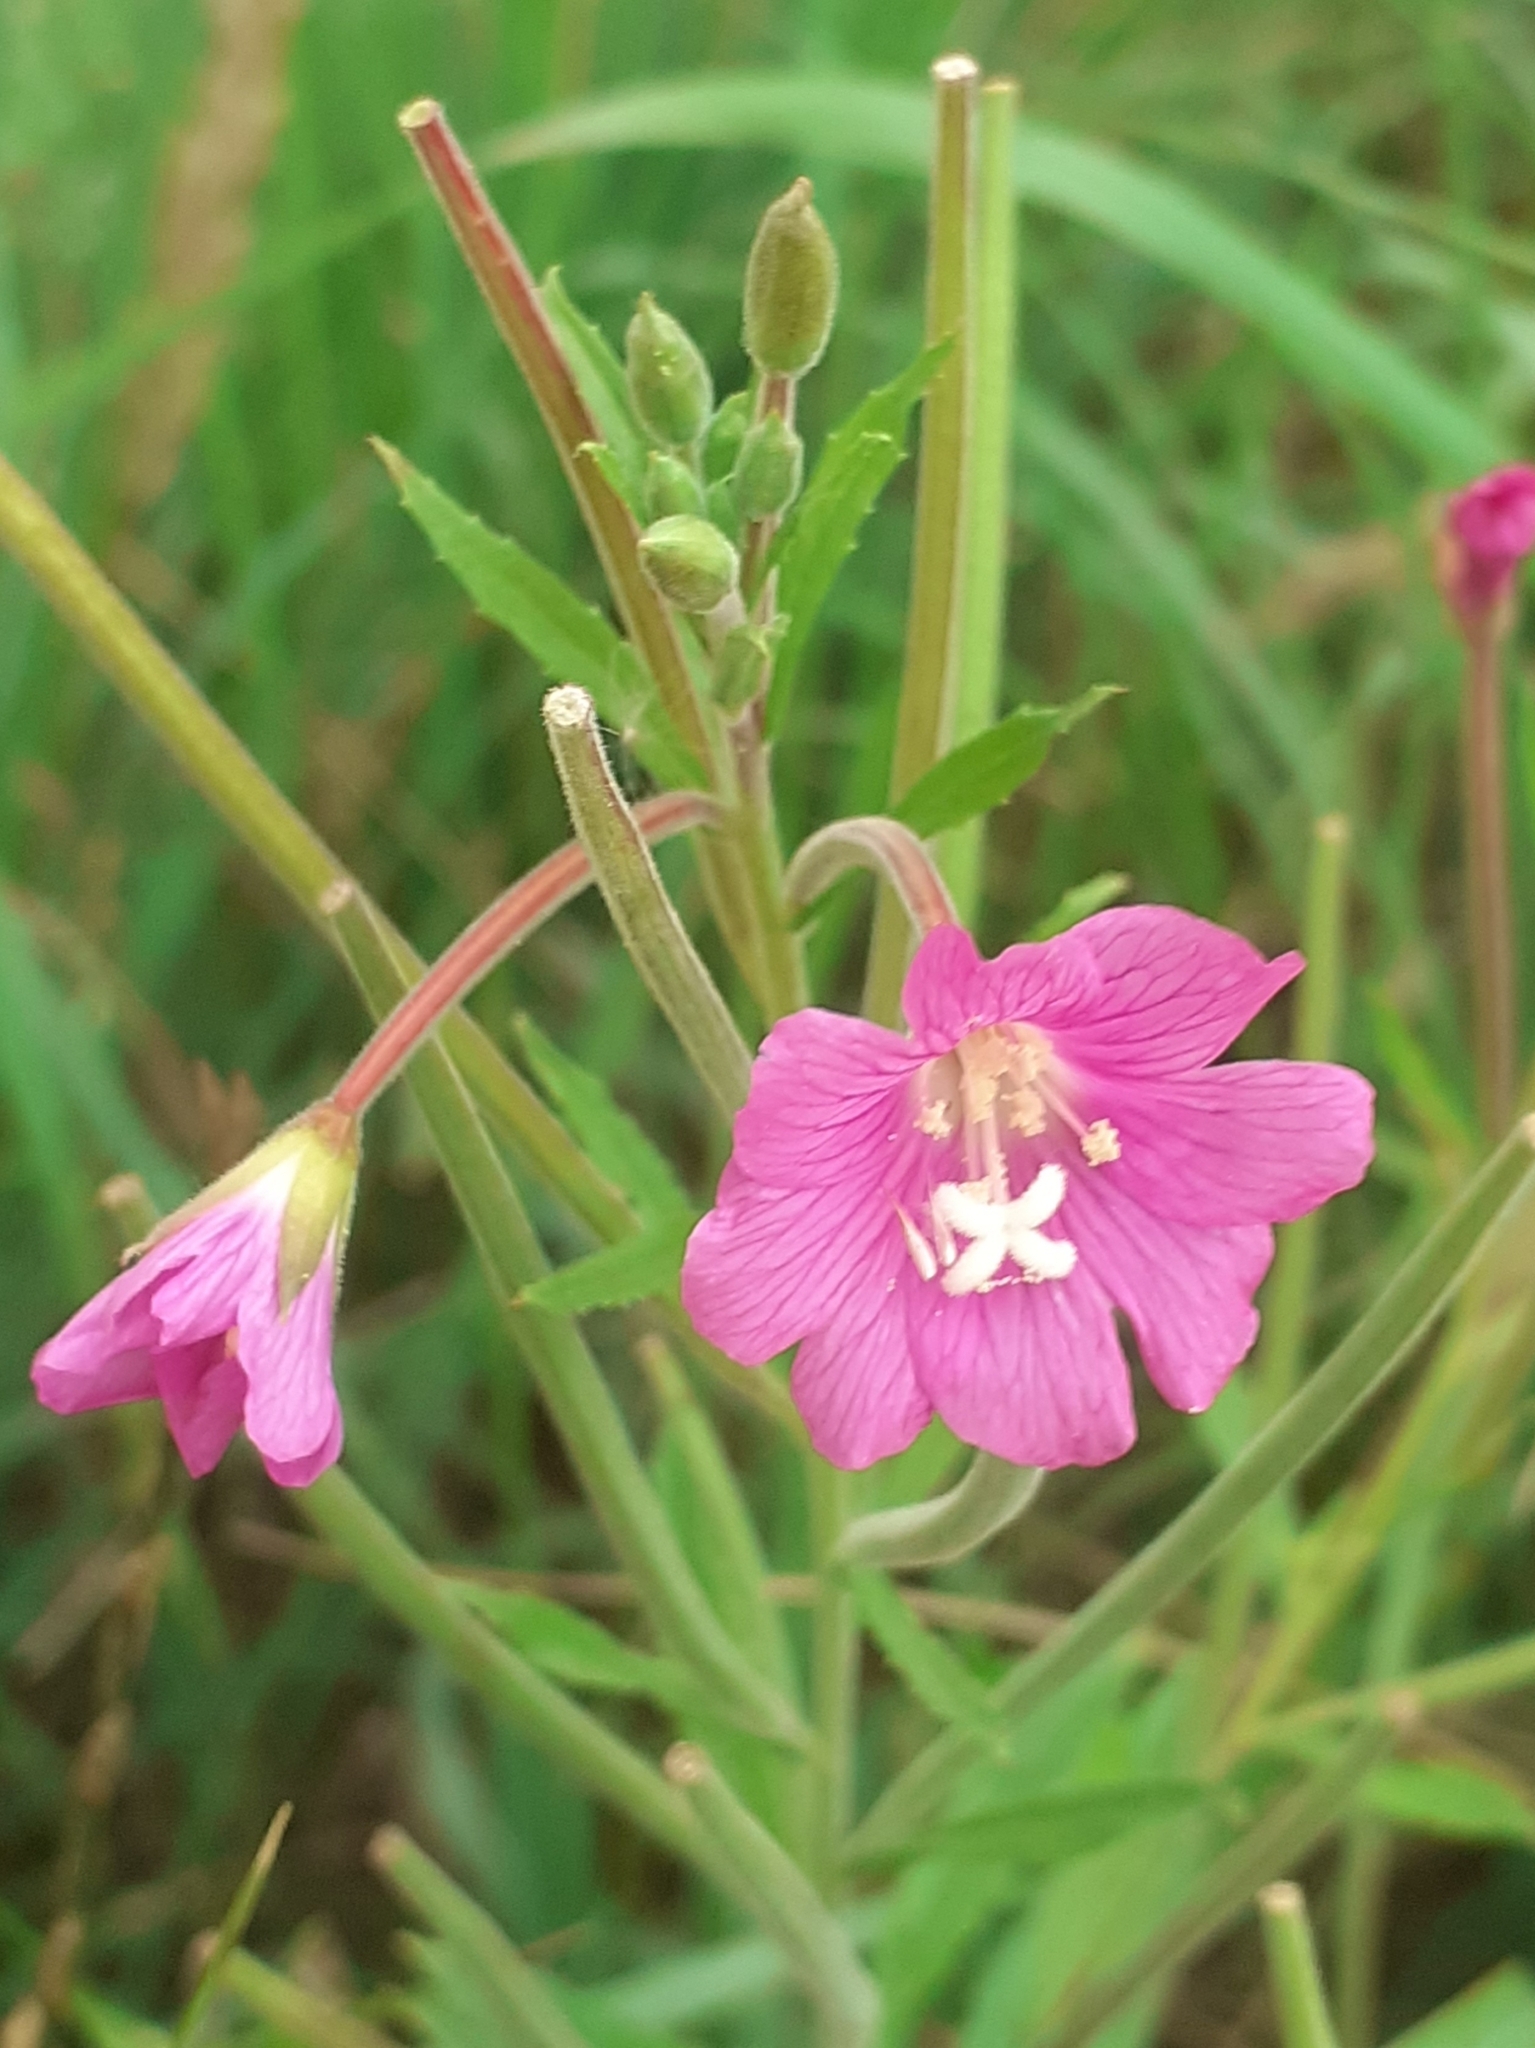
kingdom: Plantae
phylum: Tracheophyta
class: Magnoliopsida
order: Myrtales
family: Onagraceae
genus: Epilobium
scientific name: Epilobium hirsutum
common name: Great willowherb
